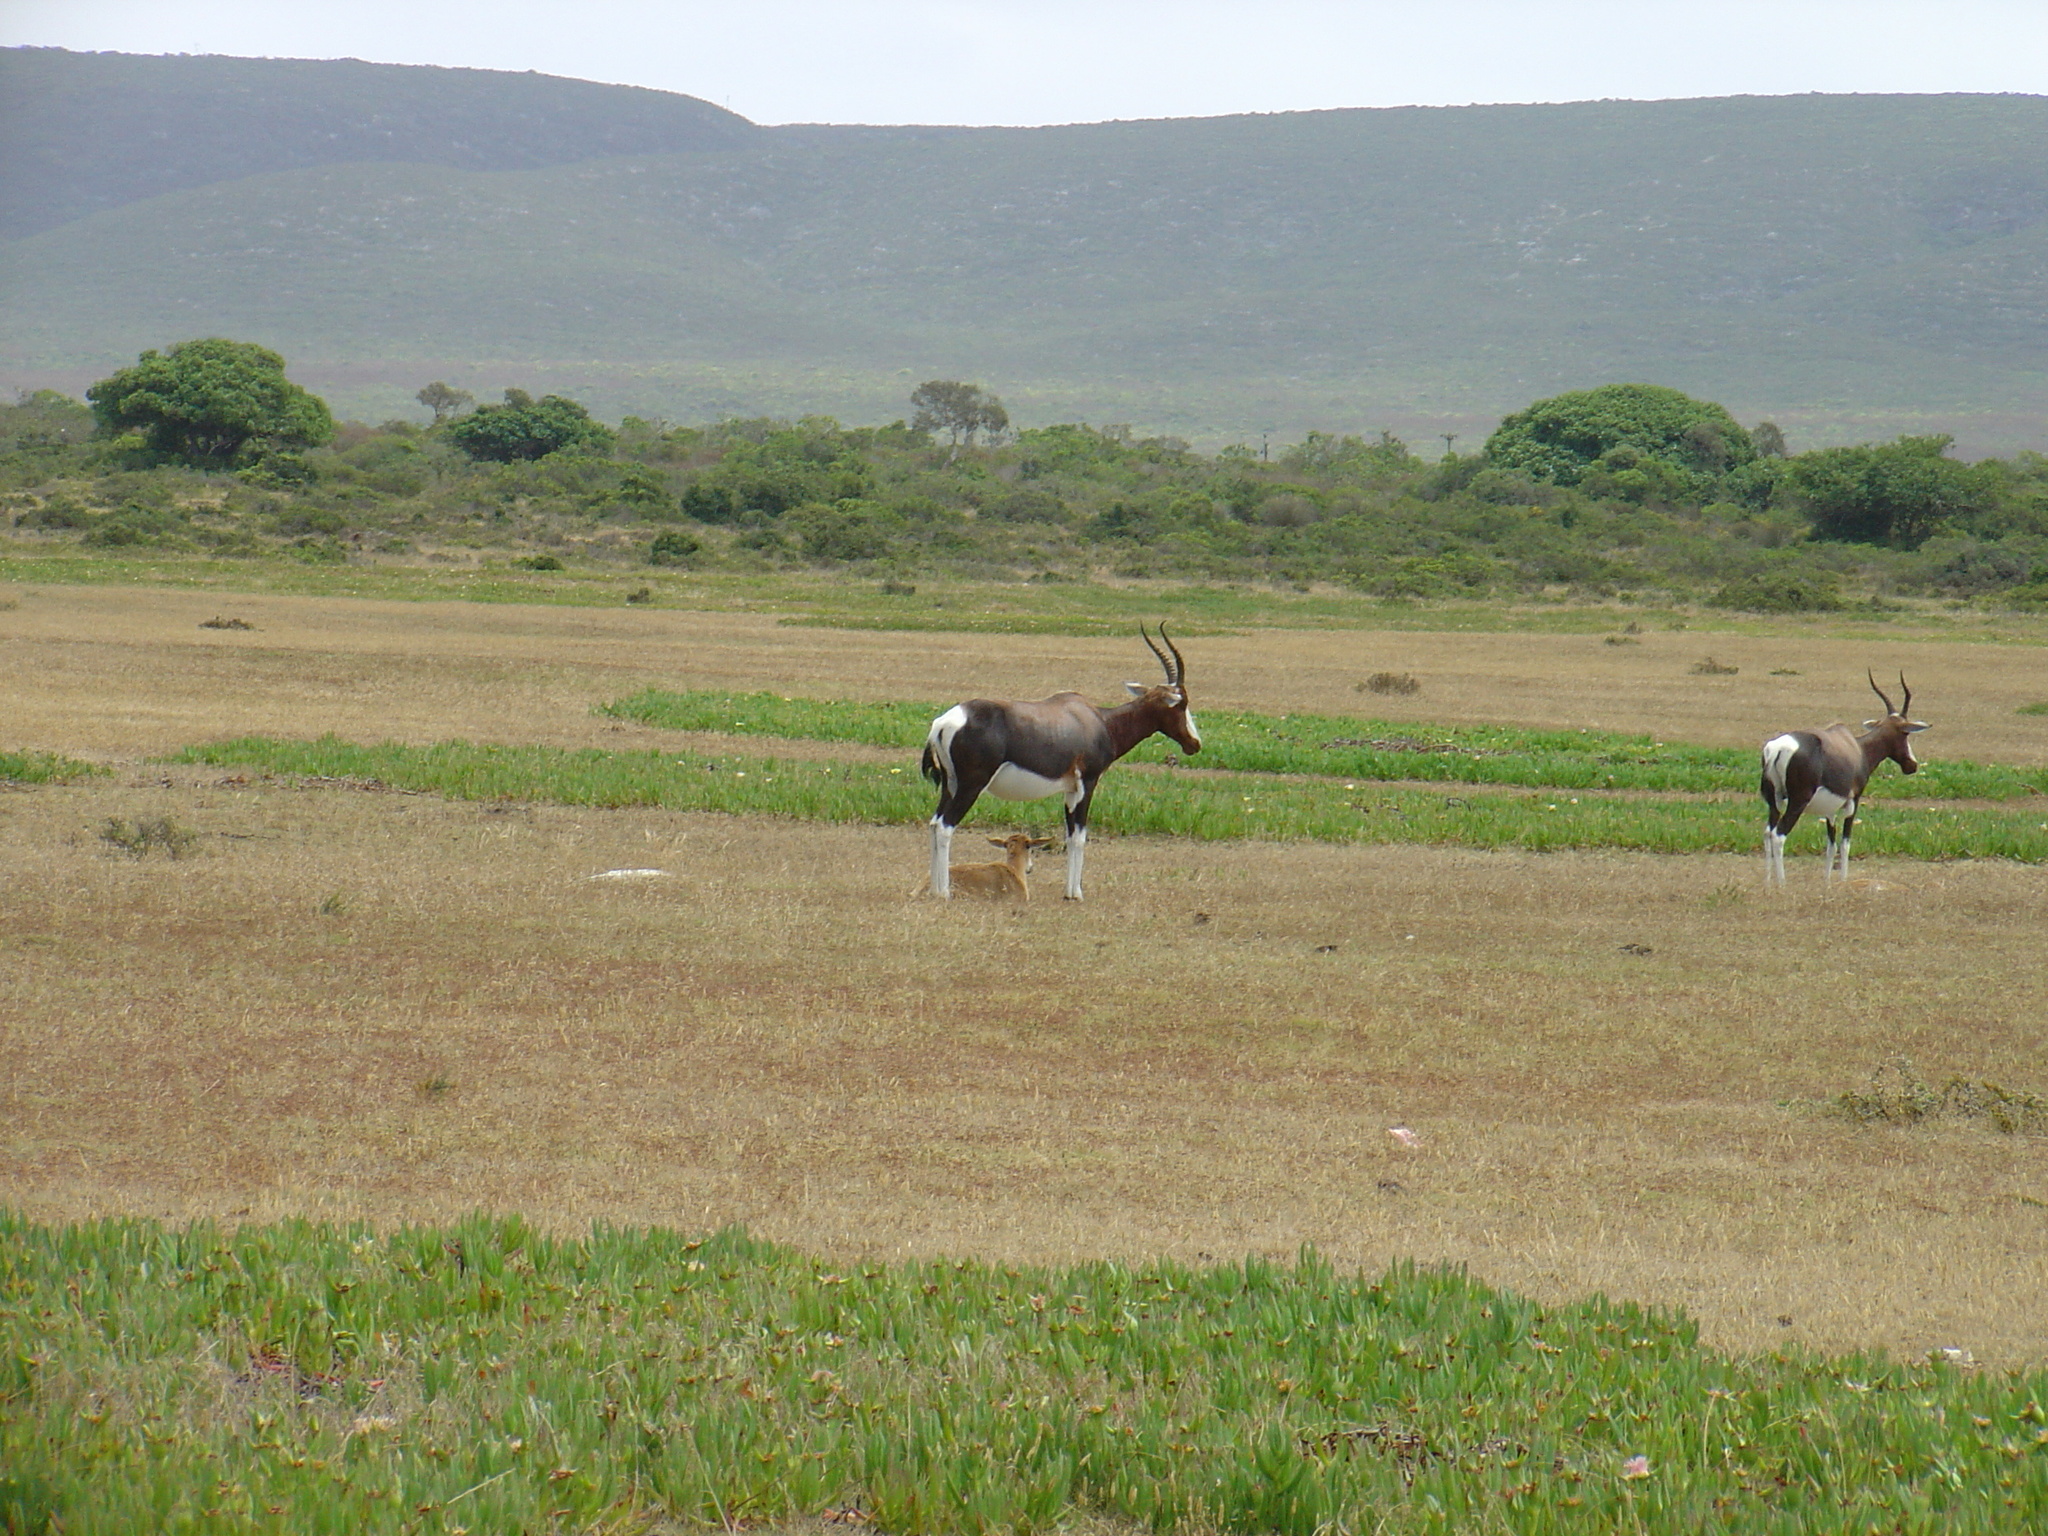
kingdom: Animalia
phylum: Chordata
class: Mammalia
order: Artiodactyla
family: Bovidae
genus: Damaliscus
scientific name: Damaliscus pygargus
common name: Bontebok
